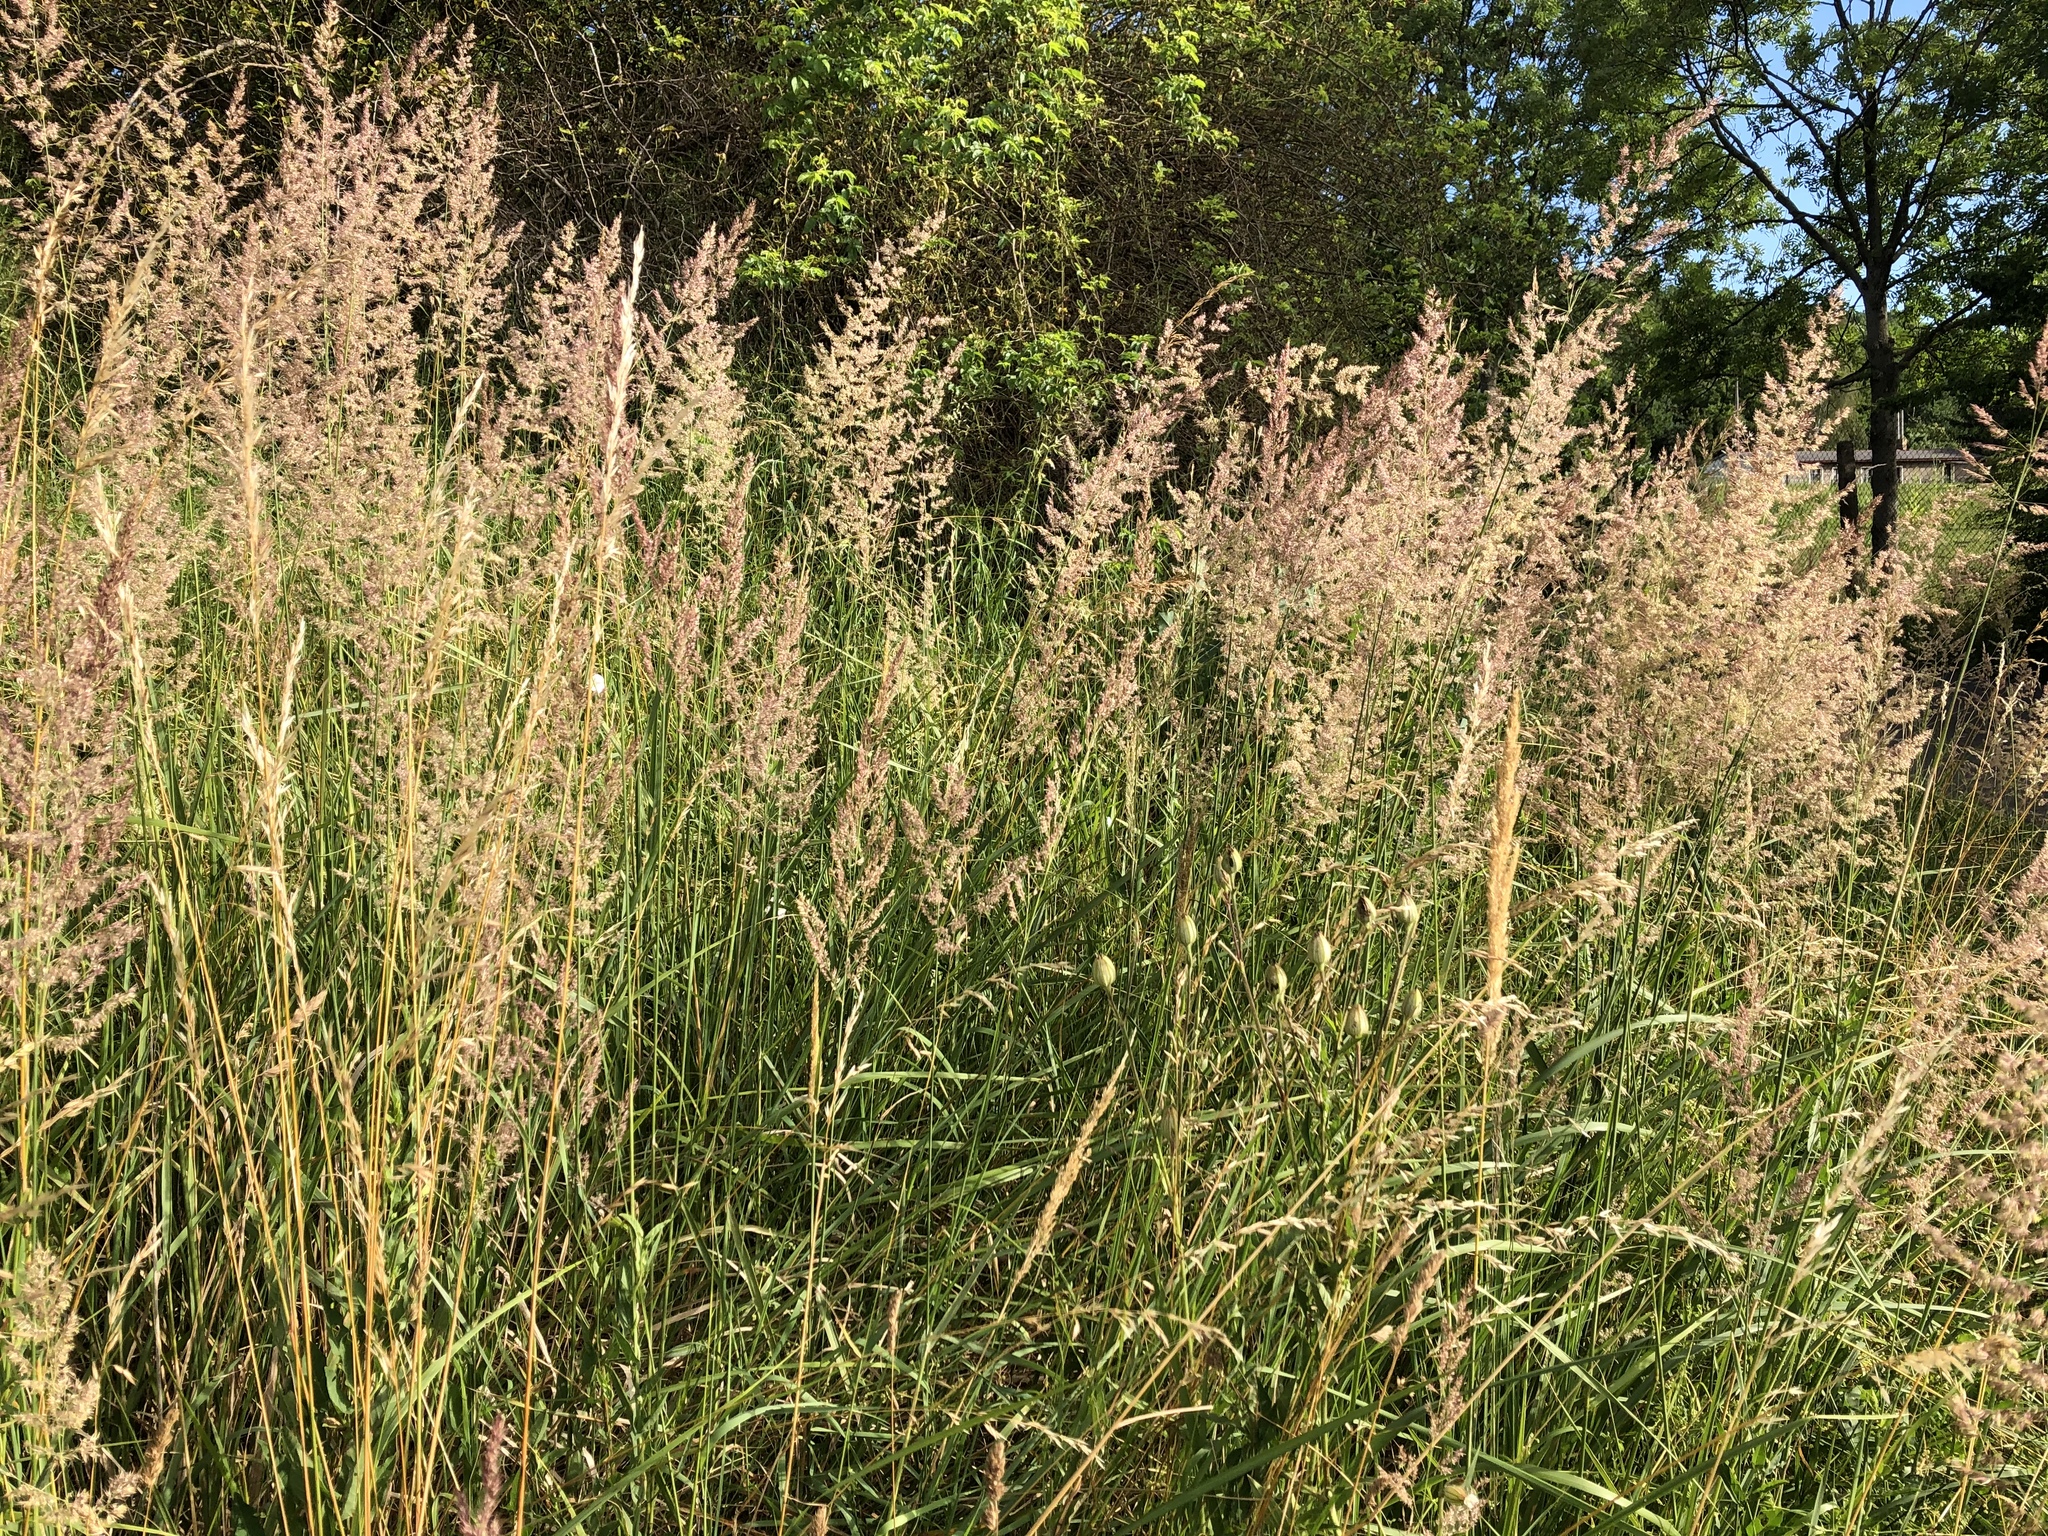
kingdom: Plantae
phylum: Tracheophyta
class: Liliopsida
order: Poales
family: Poaceae
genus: Calamagrostis
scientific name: Calamagrostis epigejos
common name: Wood small-reed
